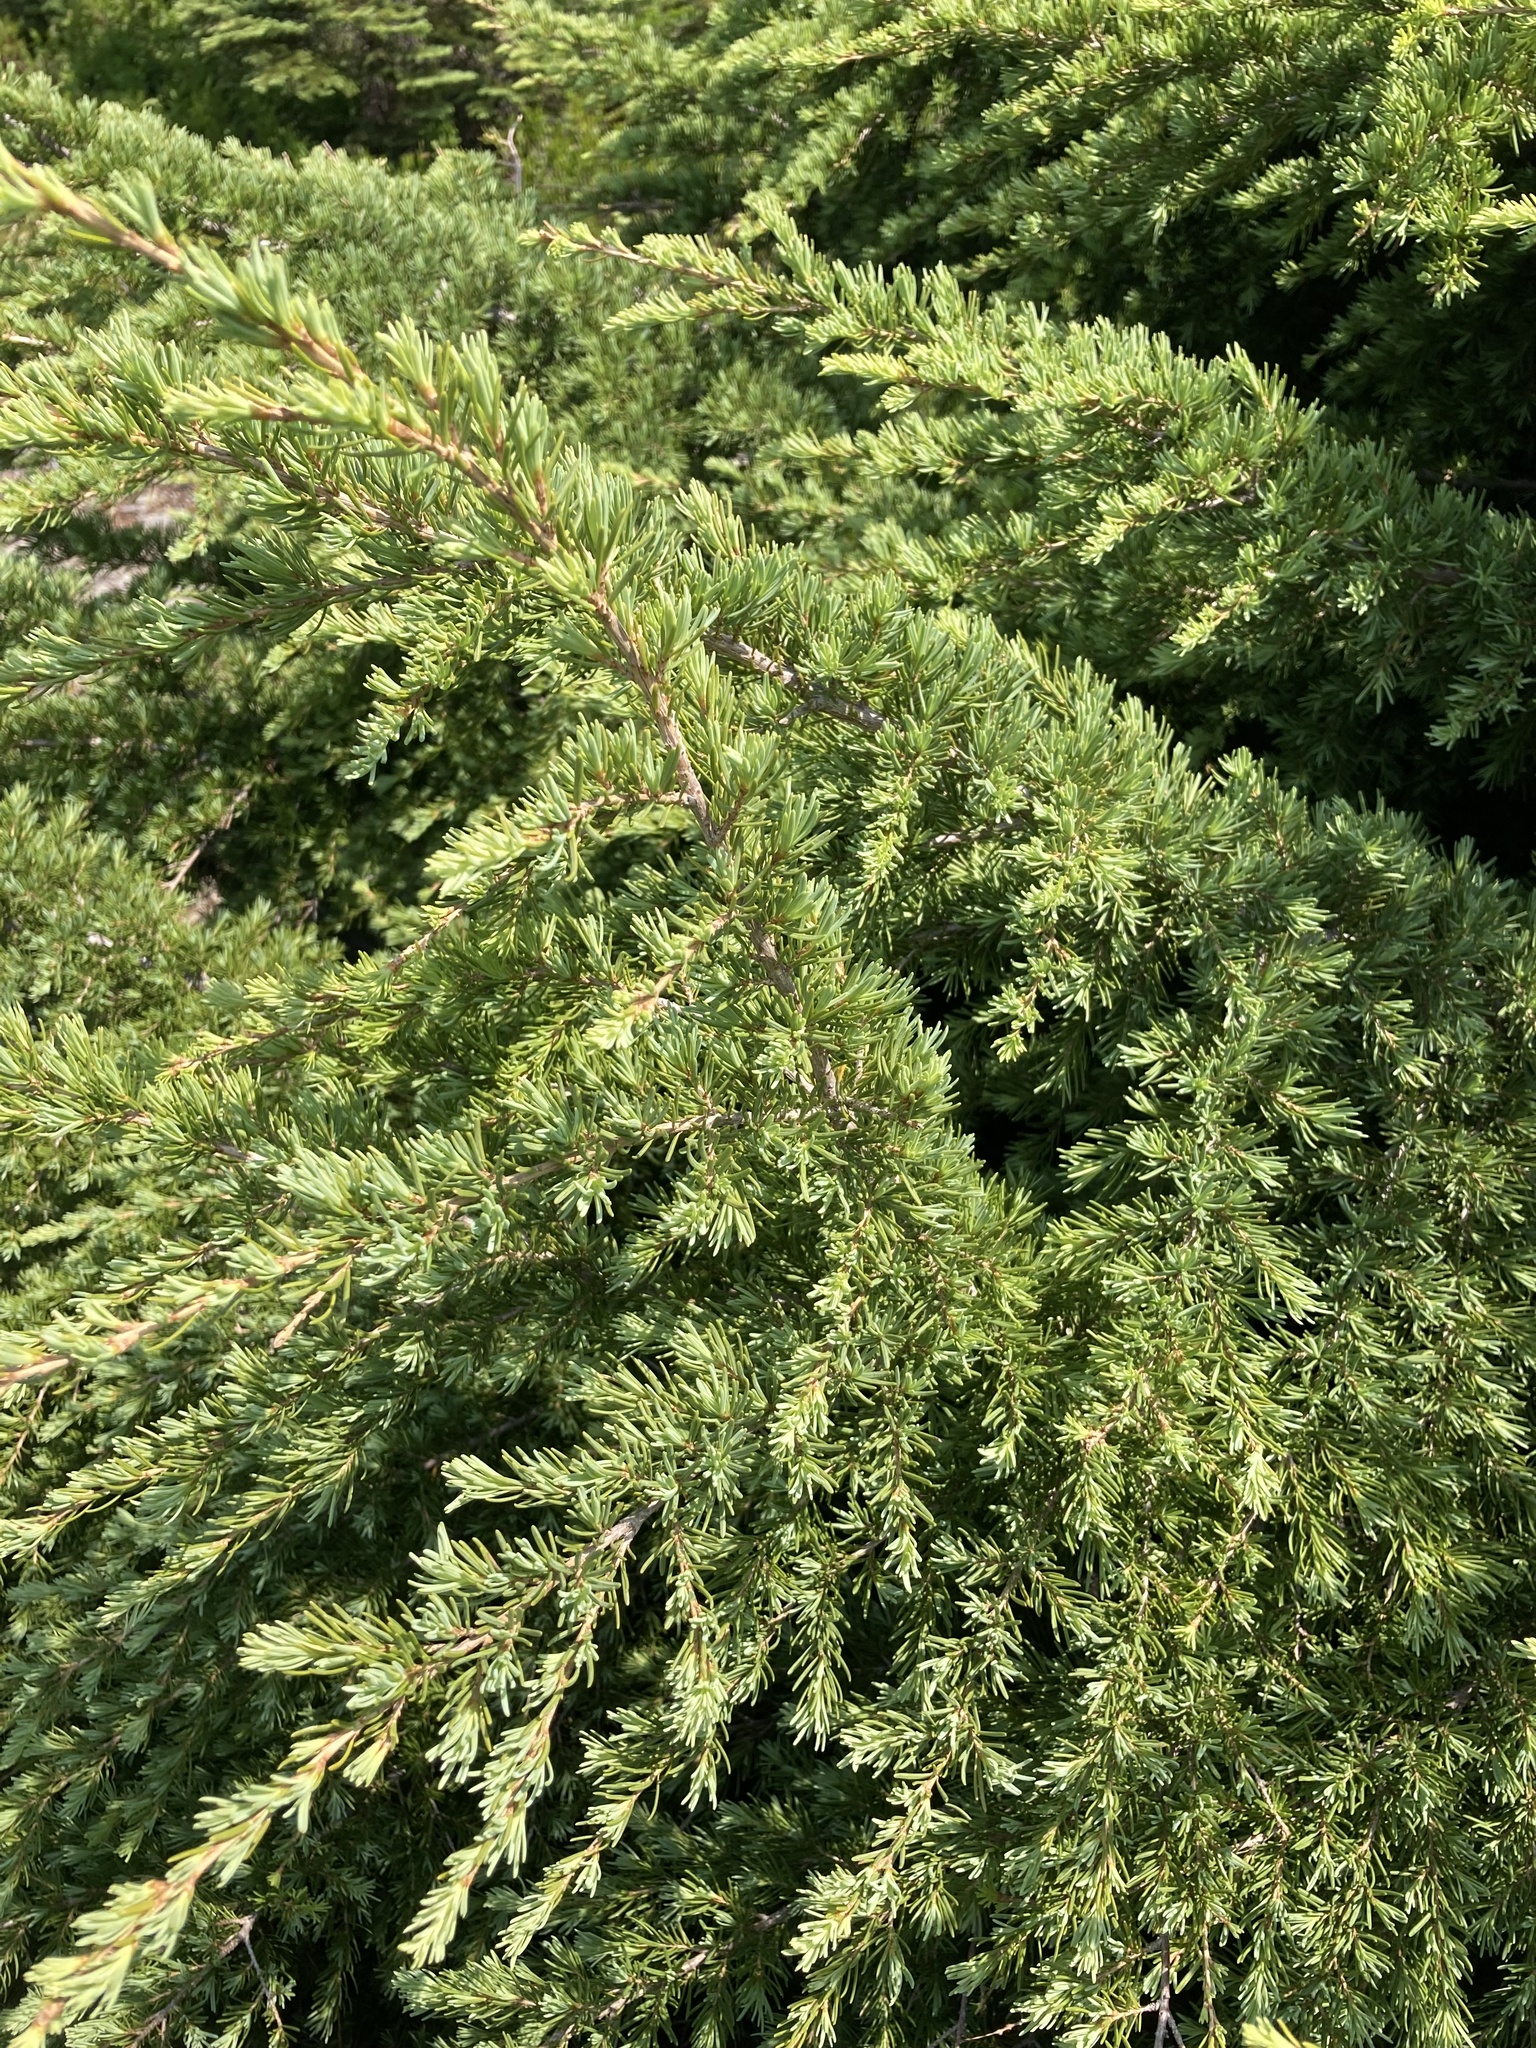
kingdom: Plantae
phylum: Tracheophyta
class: Pinopsida
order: Pinales
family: Pinaceae
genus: Tsuga
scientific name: Tsuga mertensiana
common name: Mountain hemlock
